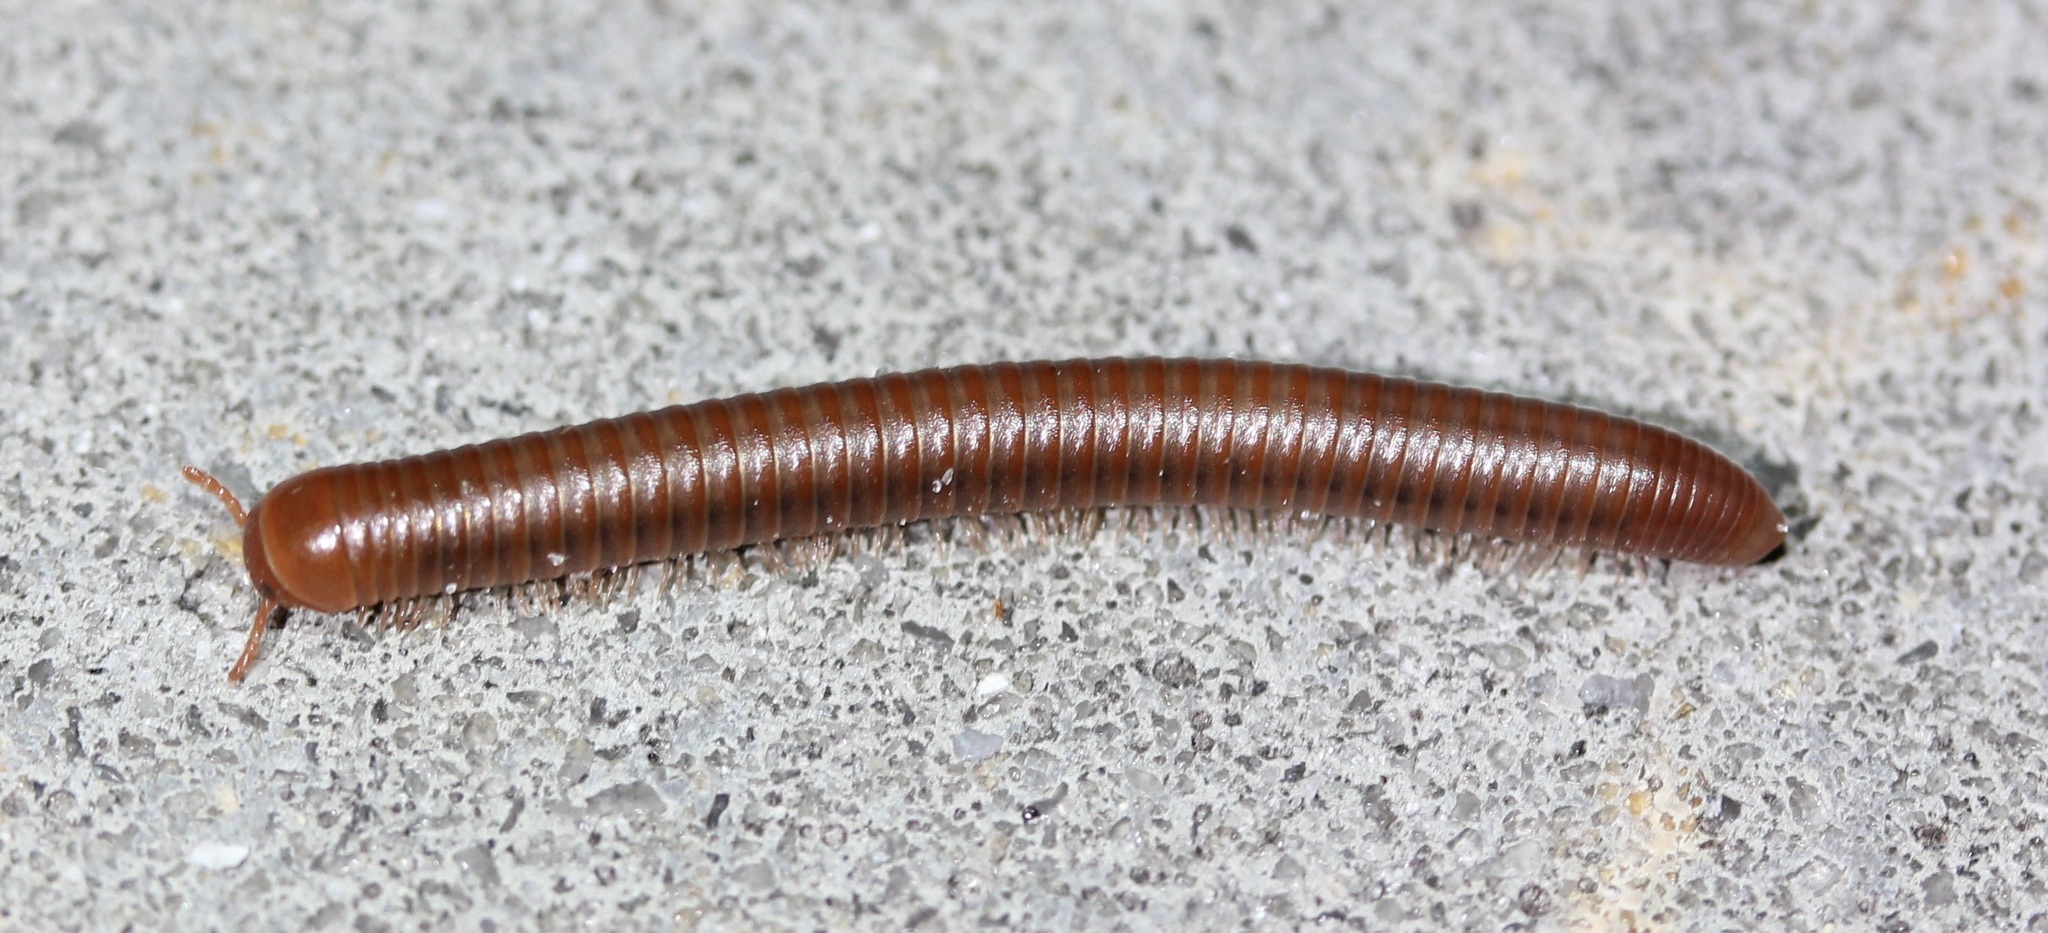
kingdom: Animalia
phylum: Arthropoda
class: Diplopoda
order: Spirobolida
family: Pachybolidae
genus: Trigoniulus
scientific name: Trigoniulus corallinus
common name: Millipede
